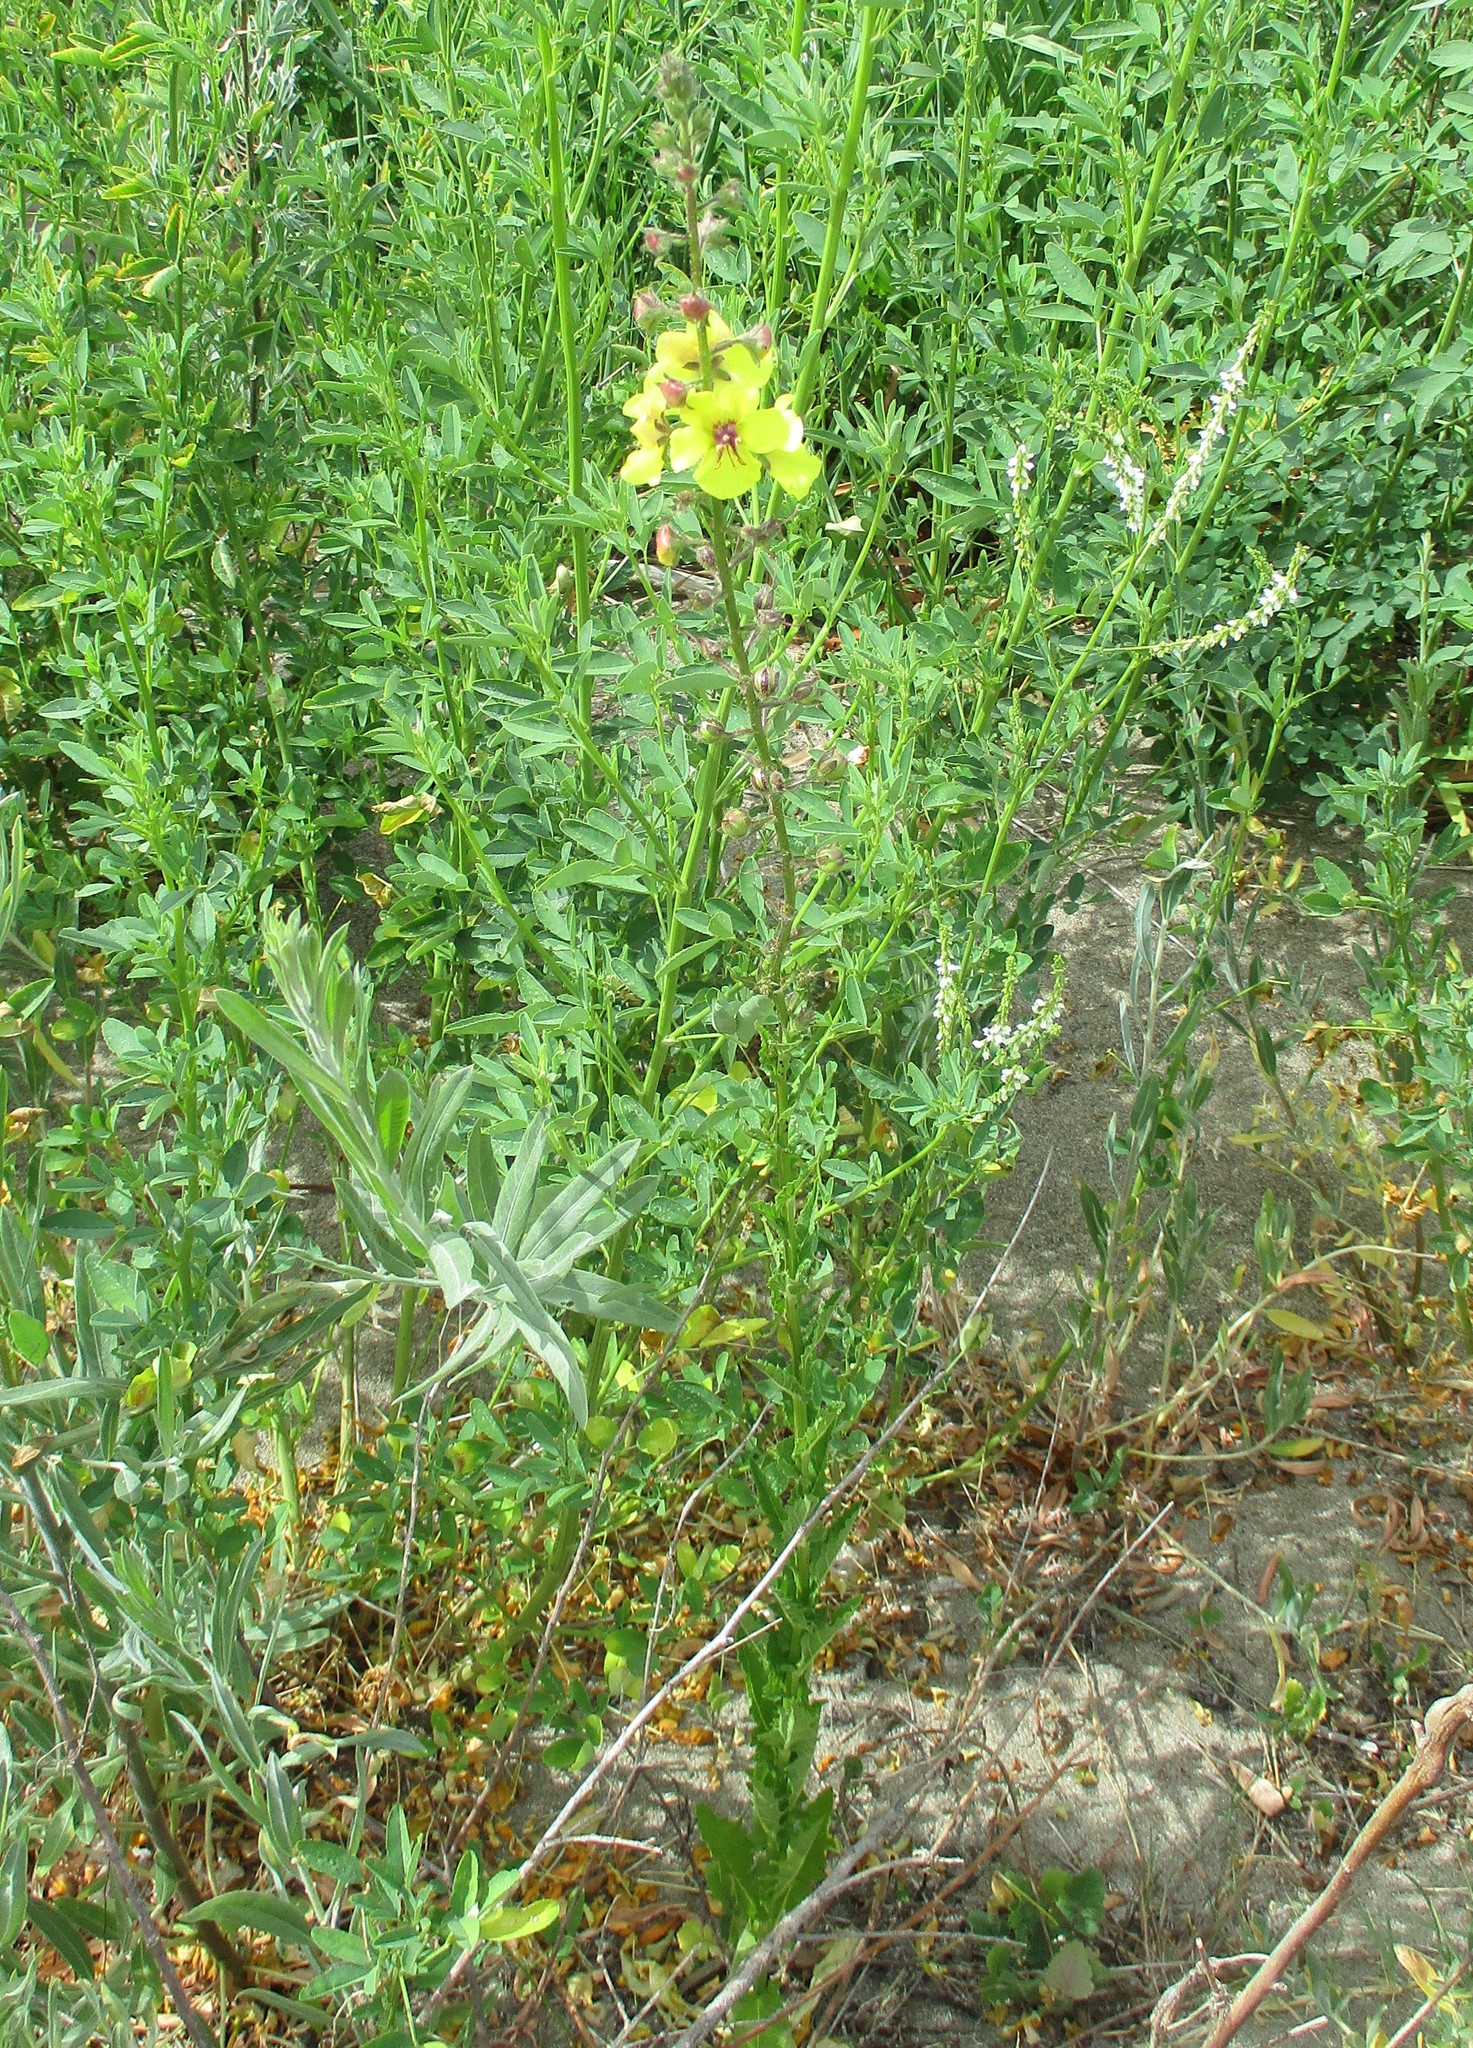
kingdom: Plantae
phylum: Tracheophyta
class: Magnoliopsida
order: Lamiales
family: Scrophulariaceae
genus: Verbascum
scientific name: Verbascum blattaria
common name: Moth mullein
